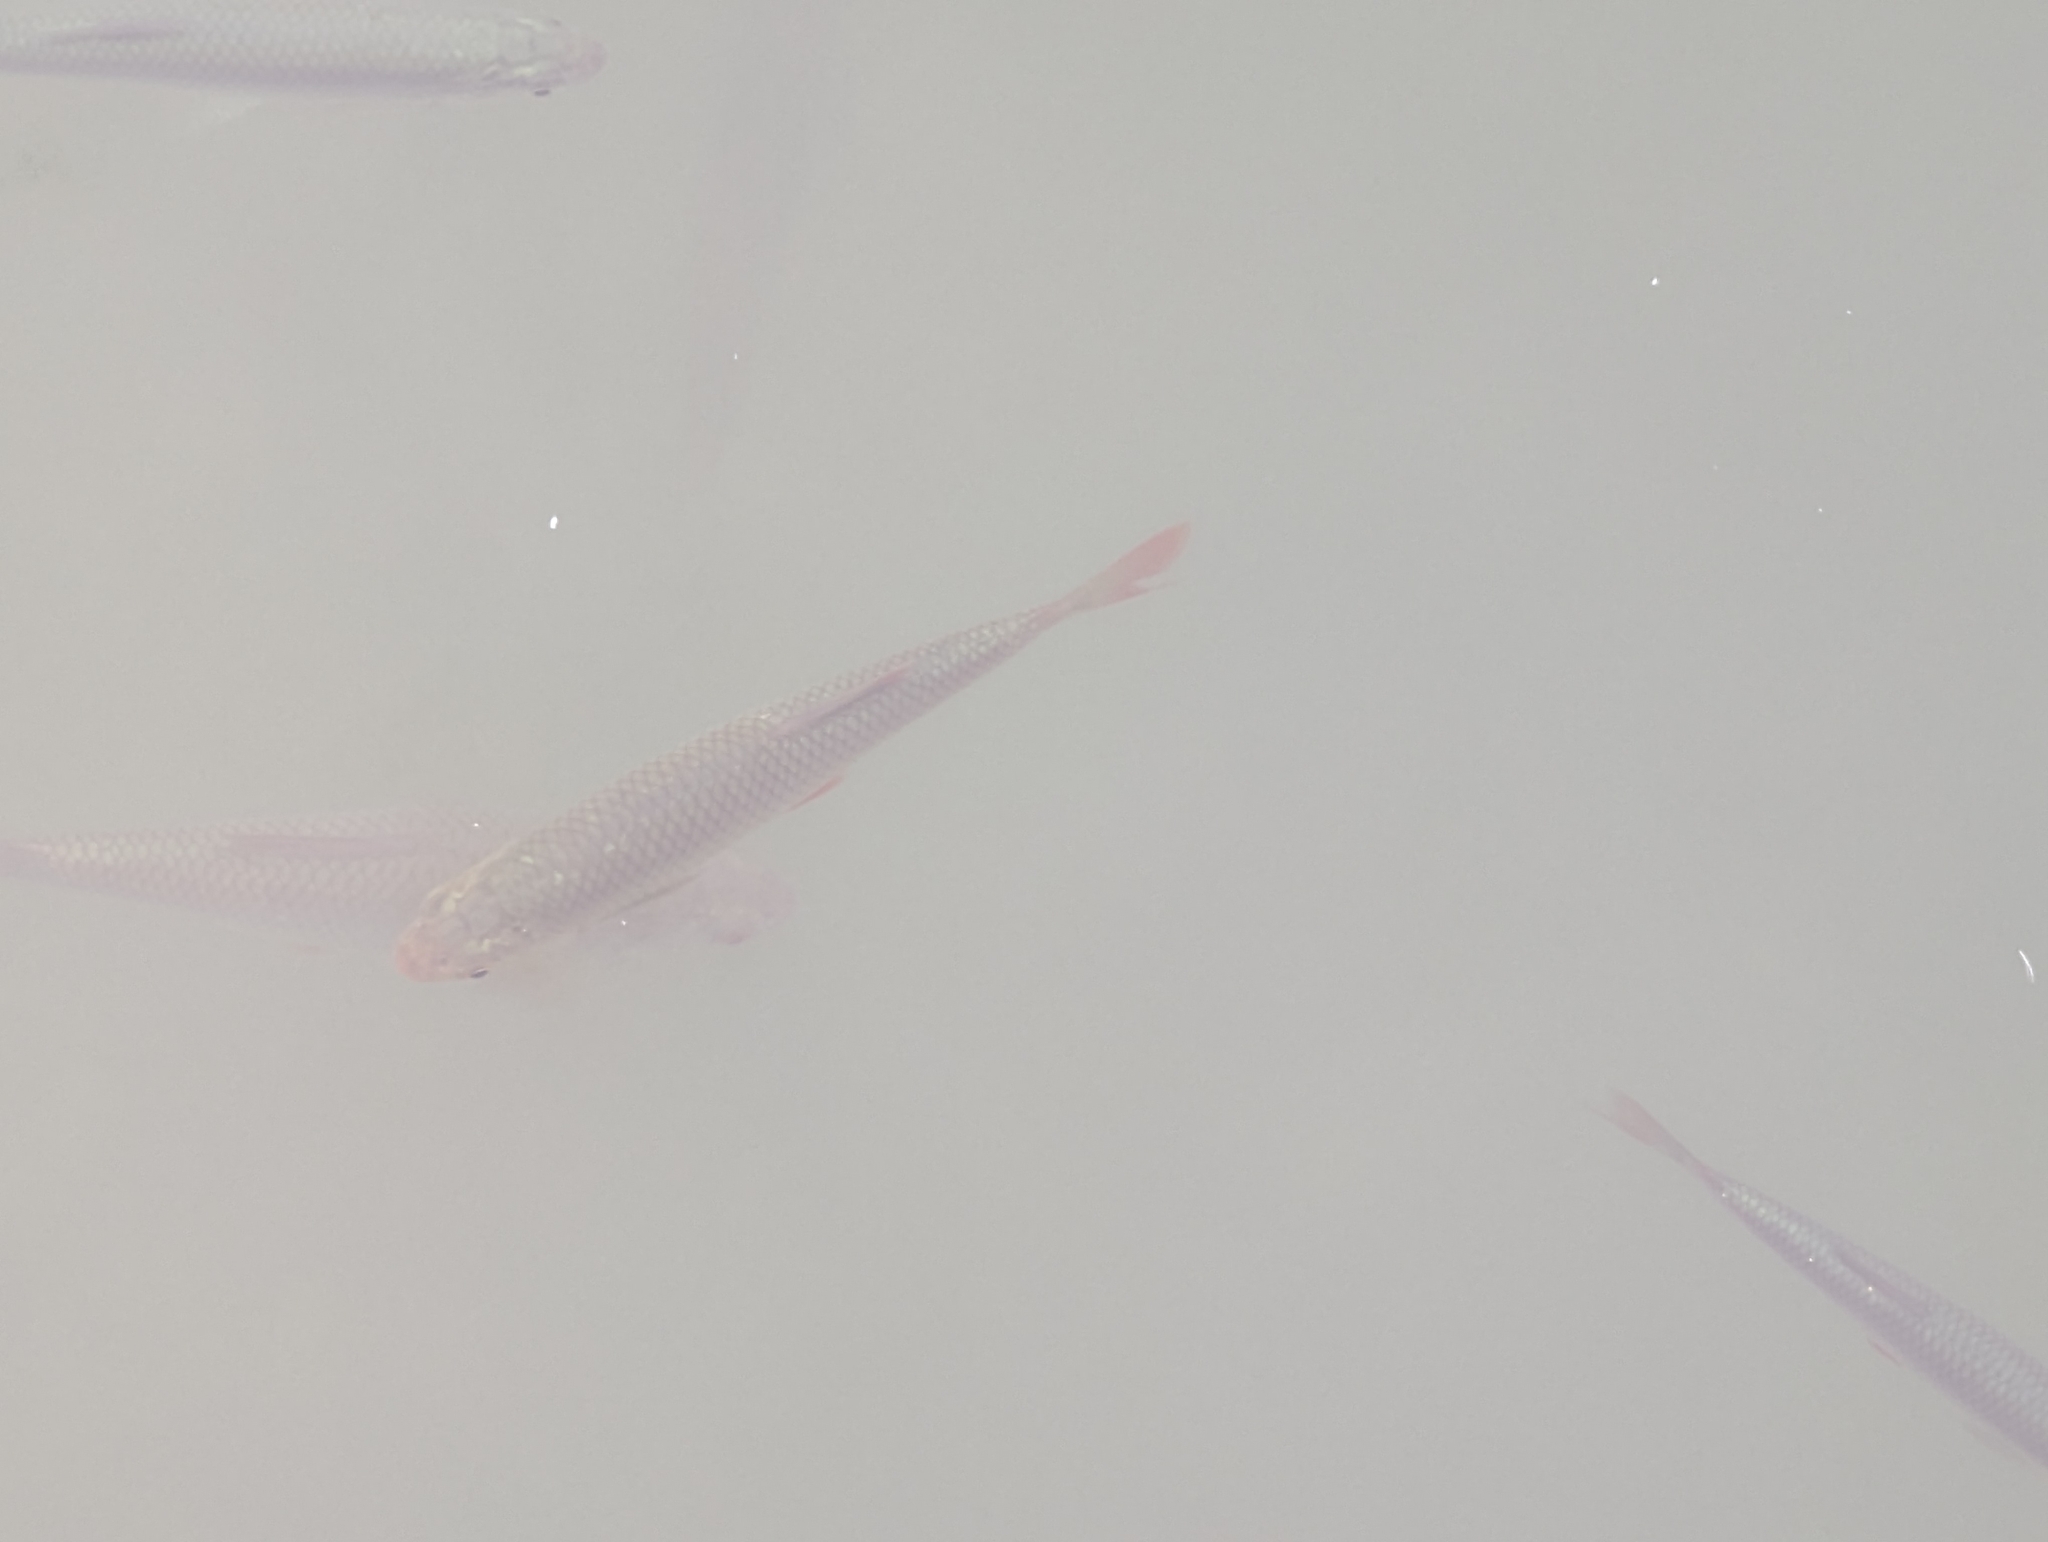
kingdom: Animalia
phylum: Chordata
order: Cypriniformes
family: Cyprinidae
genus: Scardinius
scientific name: Scardinius erythrophthalmus
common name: Rudd
